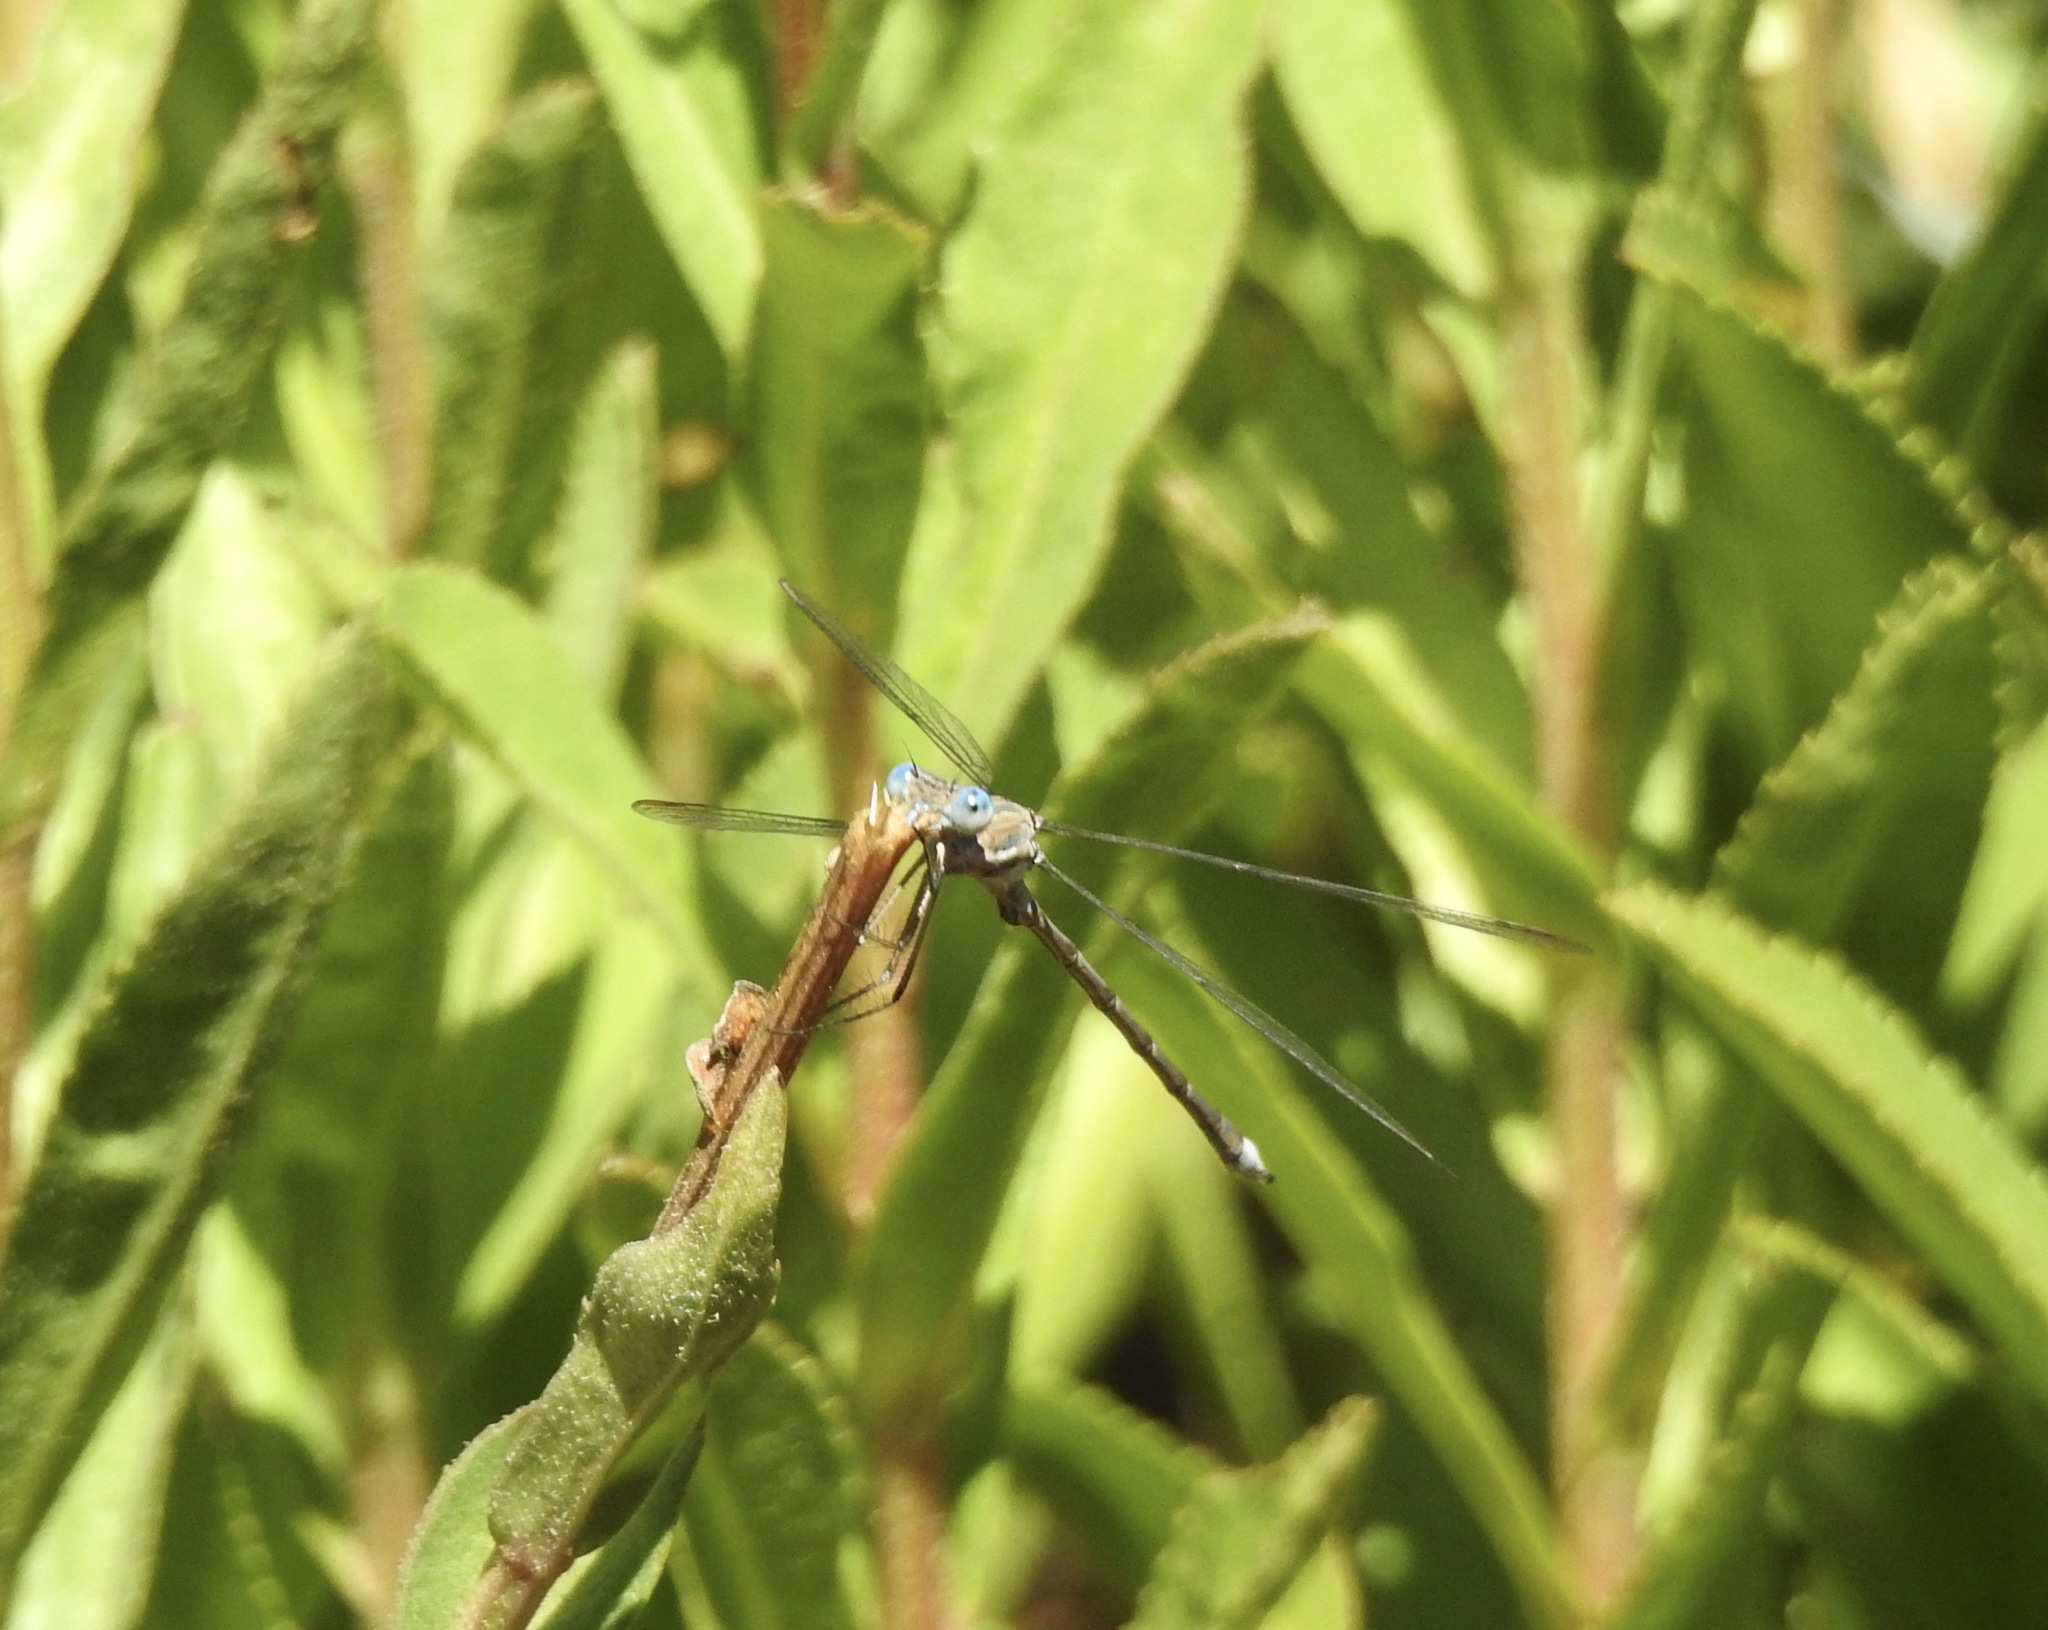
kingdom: Animalia
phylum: Arthropoda
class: Insecta
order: Odonata
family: Lestidae
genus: Archilestes
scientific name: Archilestes californicus
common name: California spreadwing
